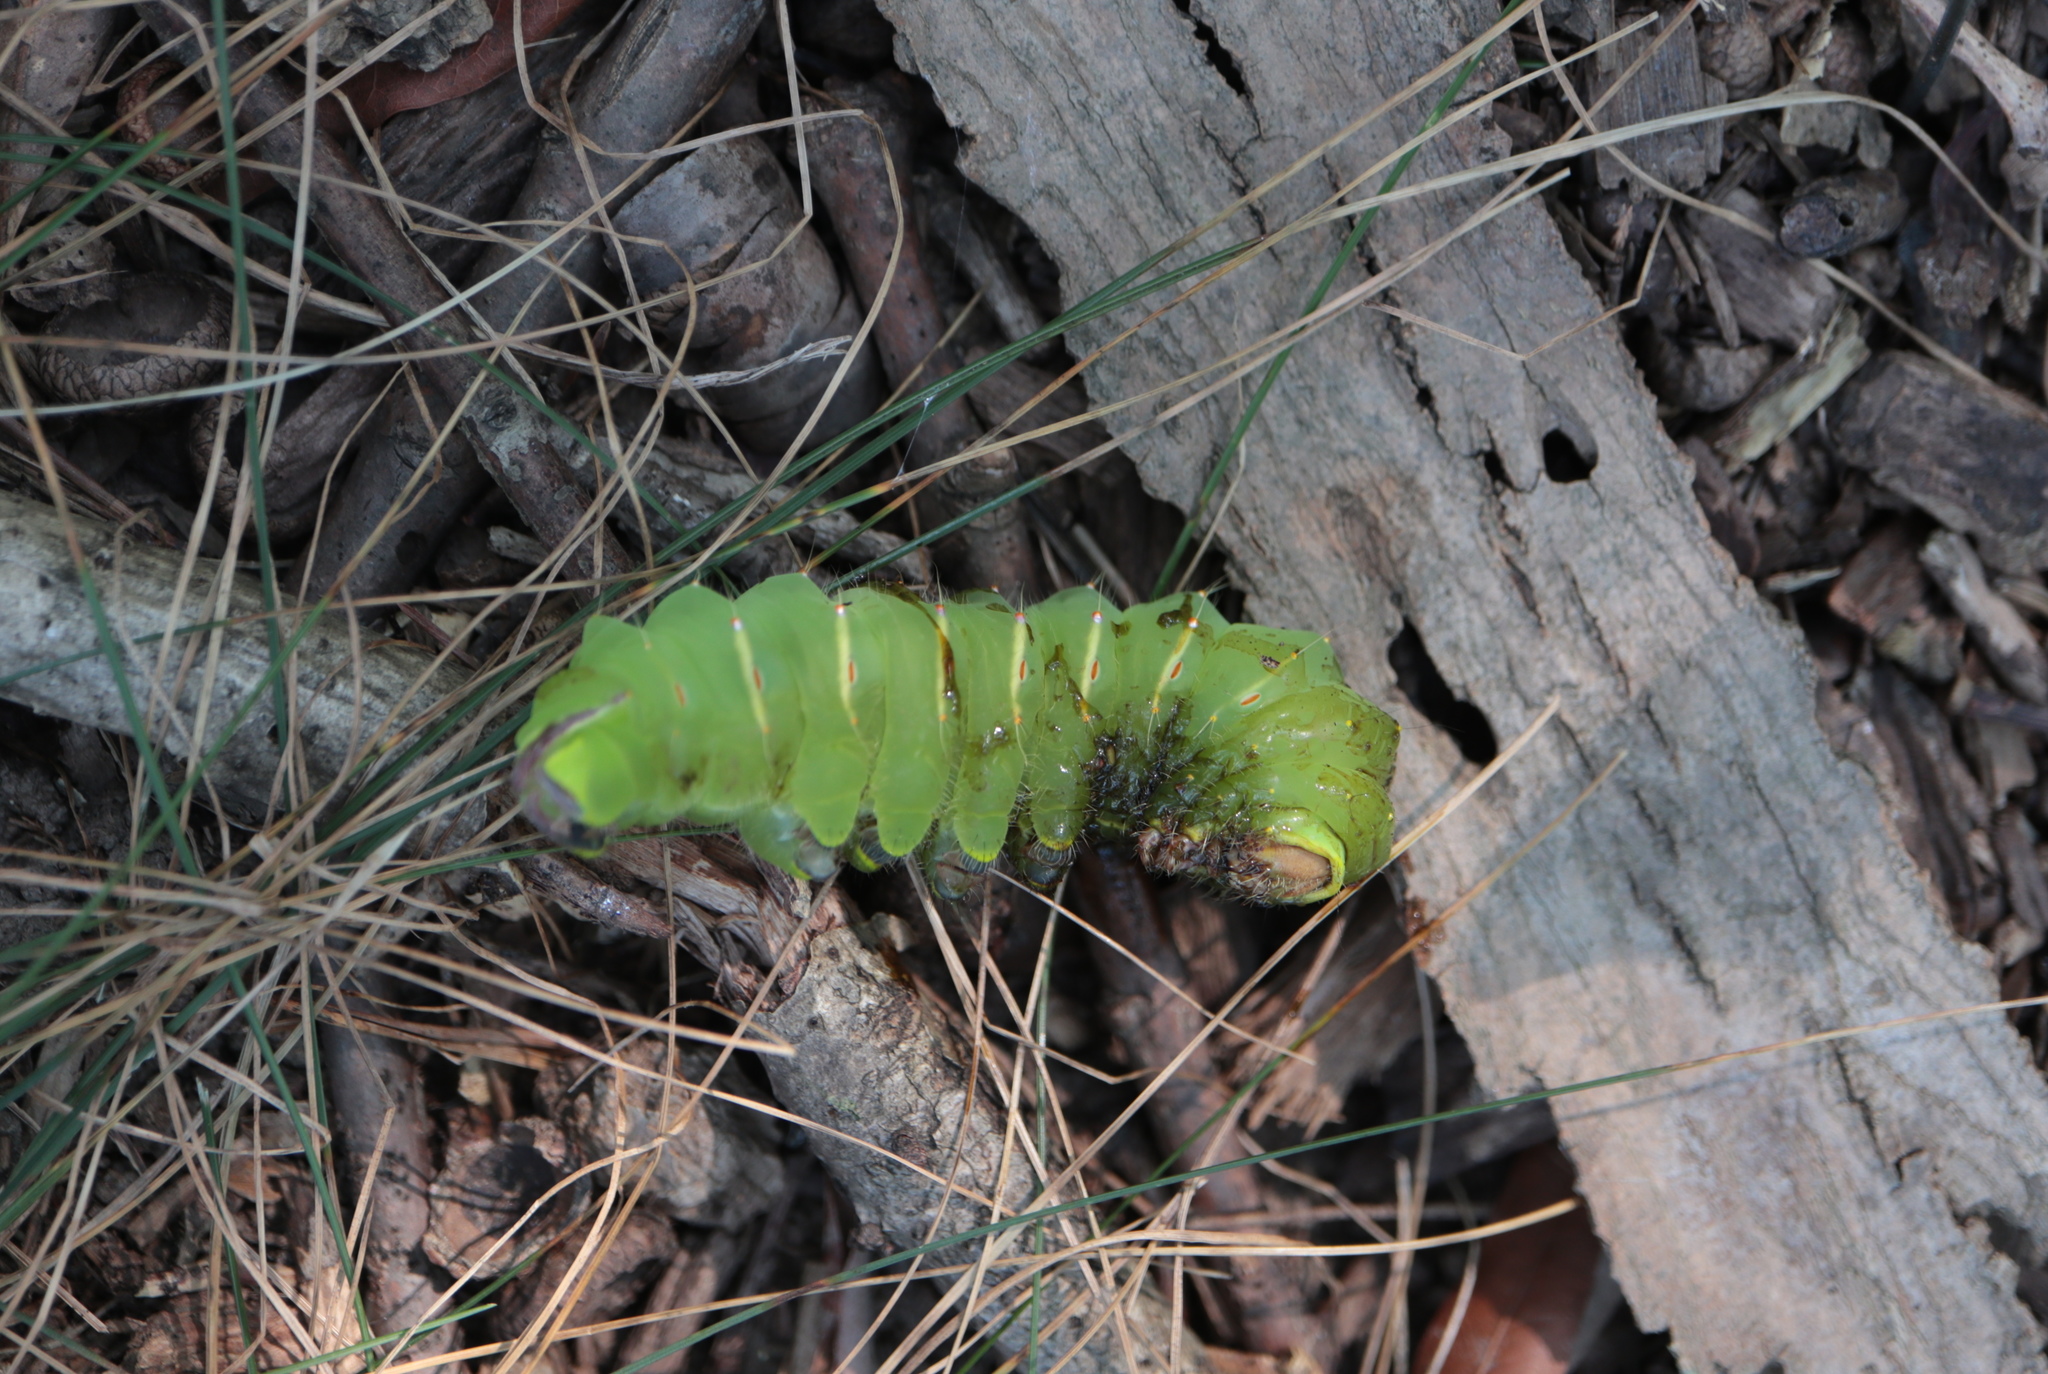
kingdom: Animalia
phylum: Arthropoda
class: Insecta
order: Lepidoptera
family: Saturniidae
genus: Antheraea
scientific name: Antheraea polyphemus
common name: Polyphemus moth
